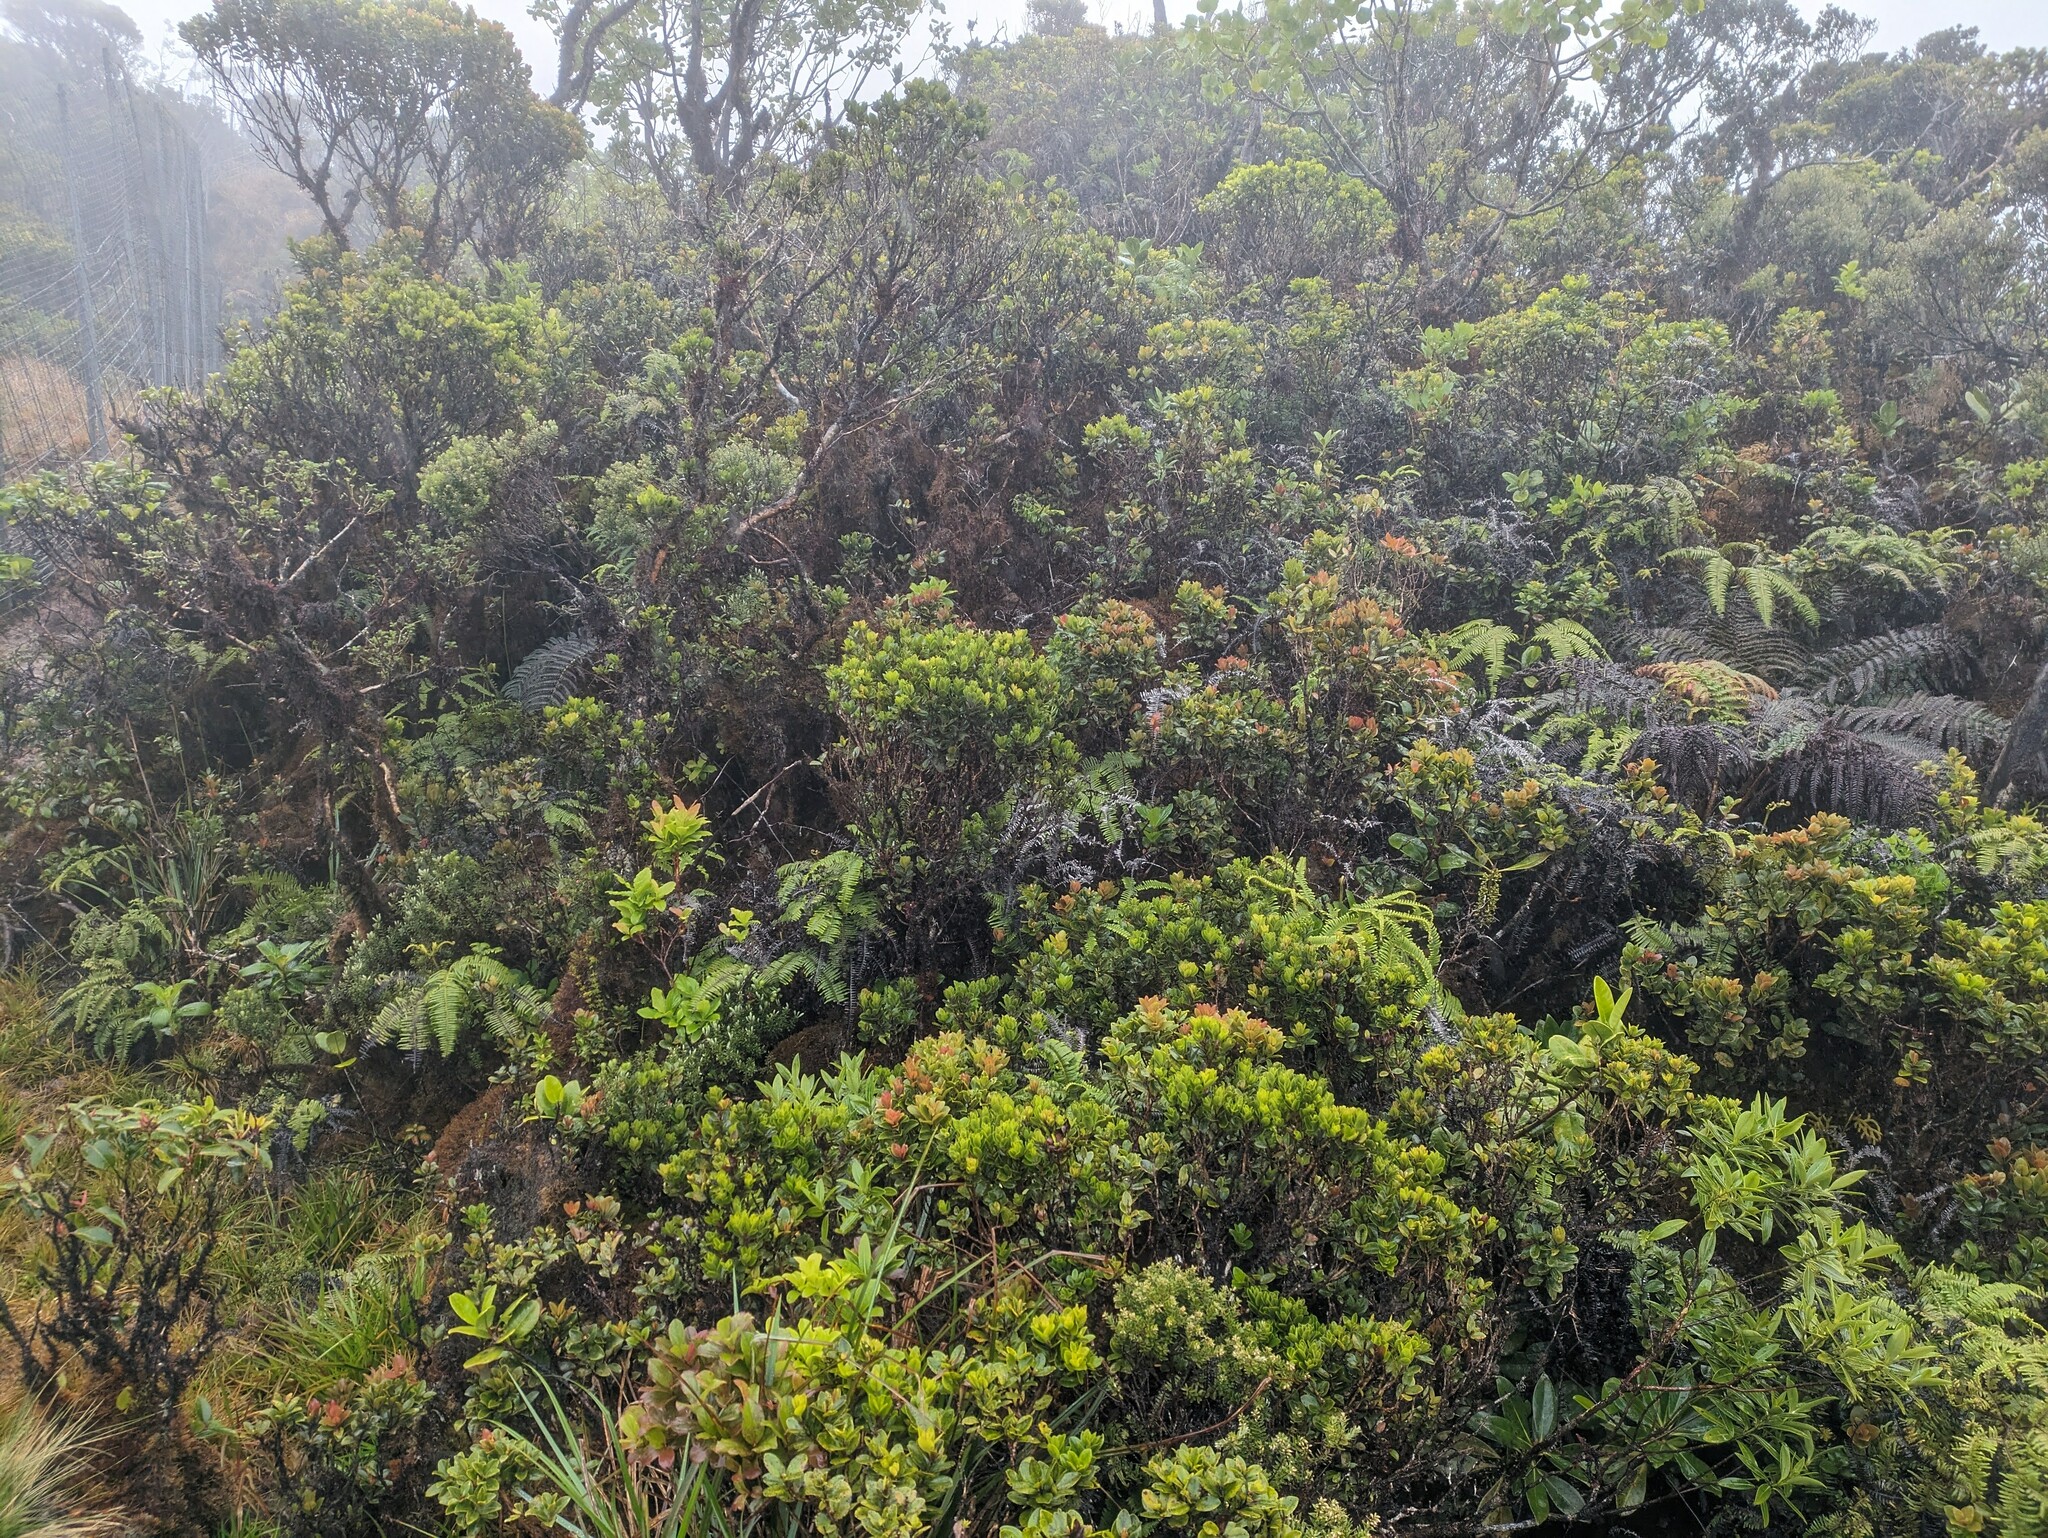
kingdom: Plantae
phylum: Tracheophyta
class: Magnoliopsida
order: Myrtales
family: Myrtaceae
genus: Metrosideros
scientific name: Metrosideros polymorpha
